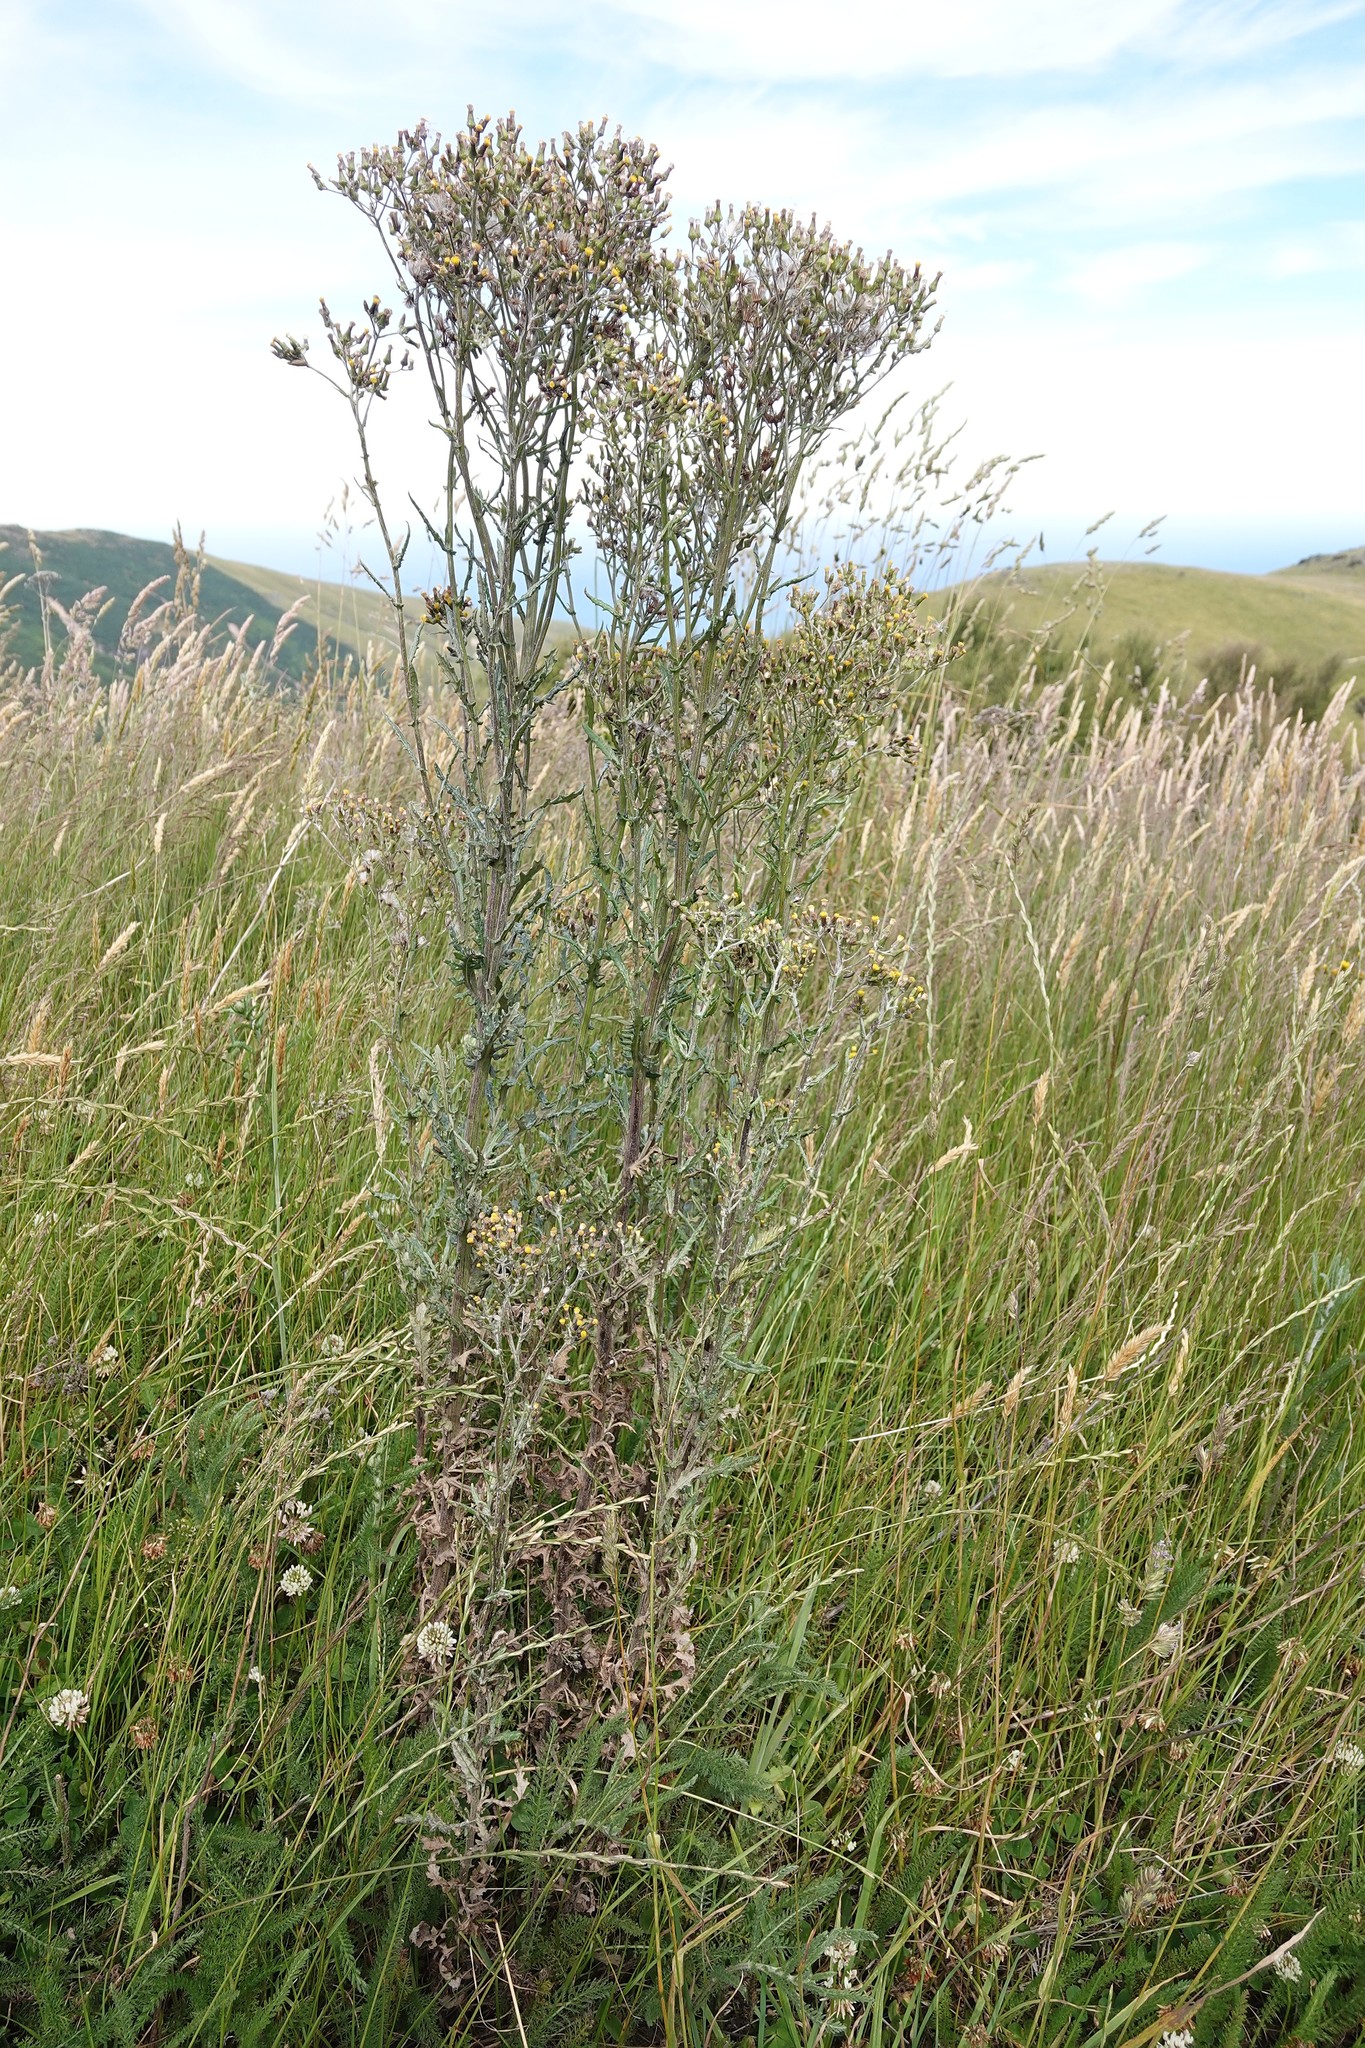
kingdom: Plantae
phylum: Tracheophyta
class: Magnoliopsida
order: Asterales
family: Asteraceae
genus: Senecio
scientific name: Senecio glomeratus
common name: Cutleaf burnweed
